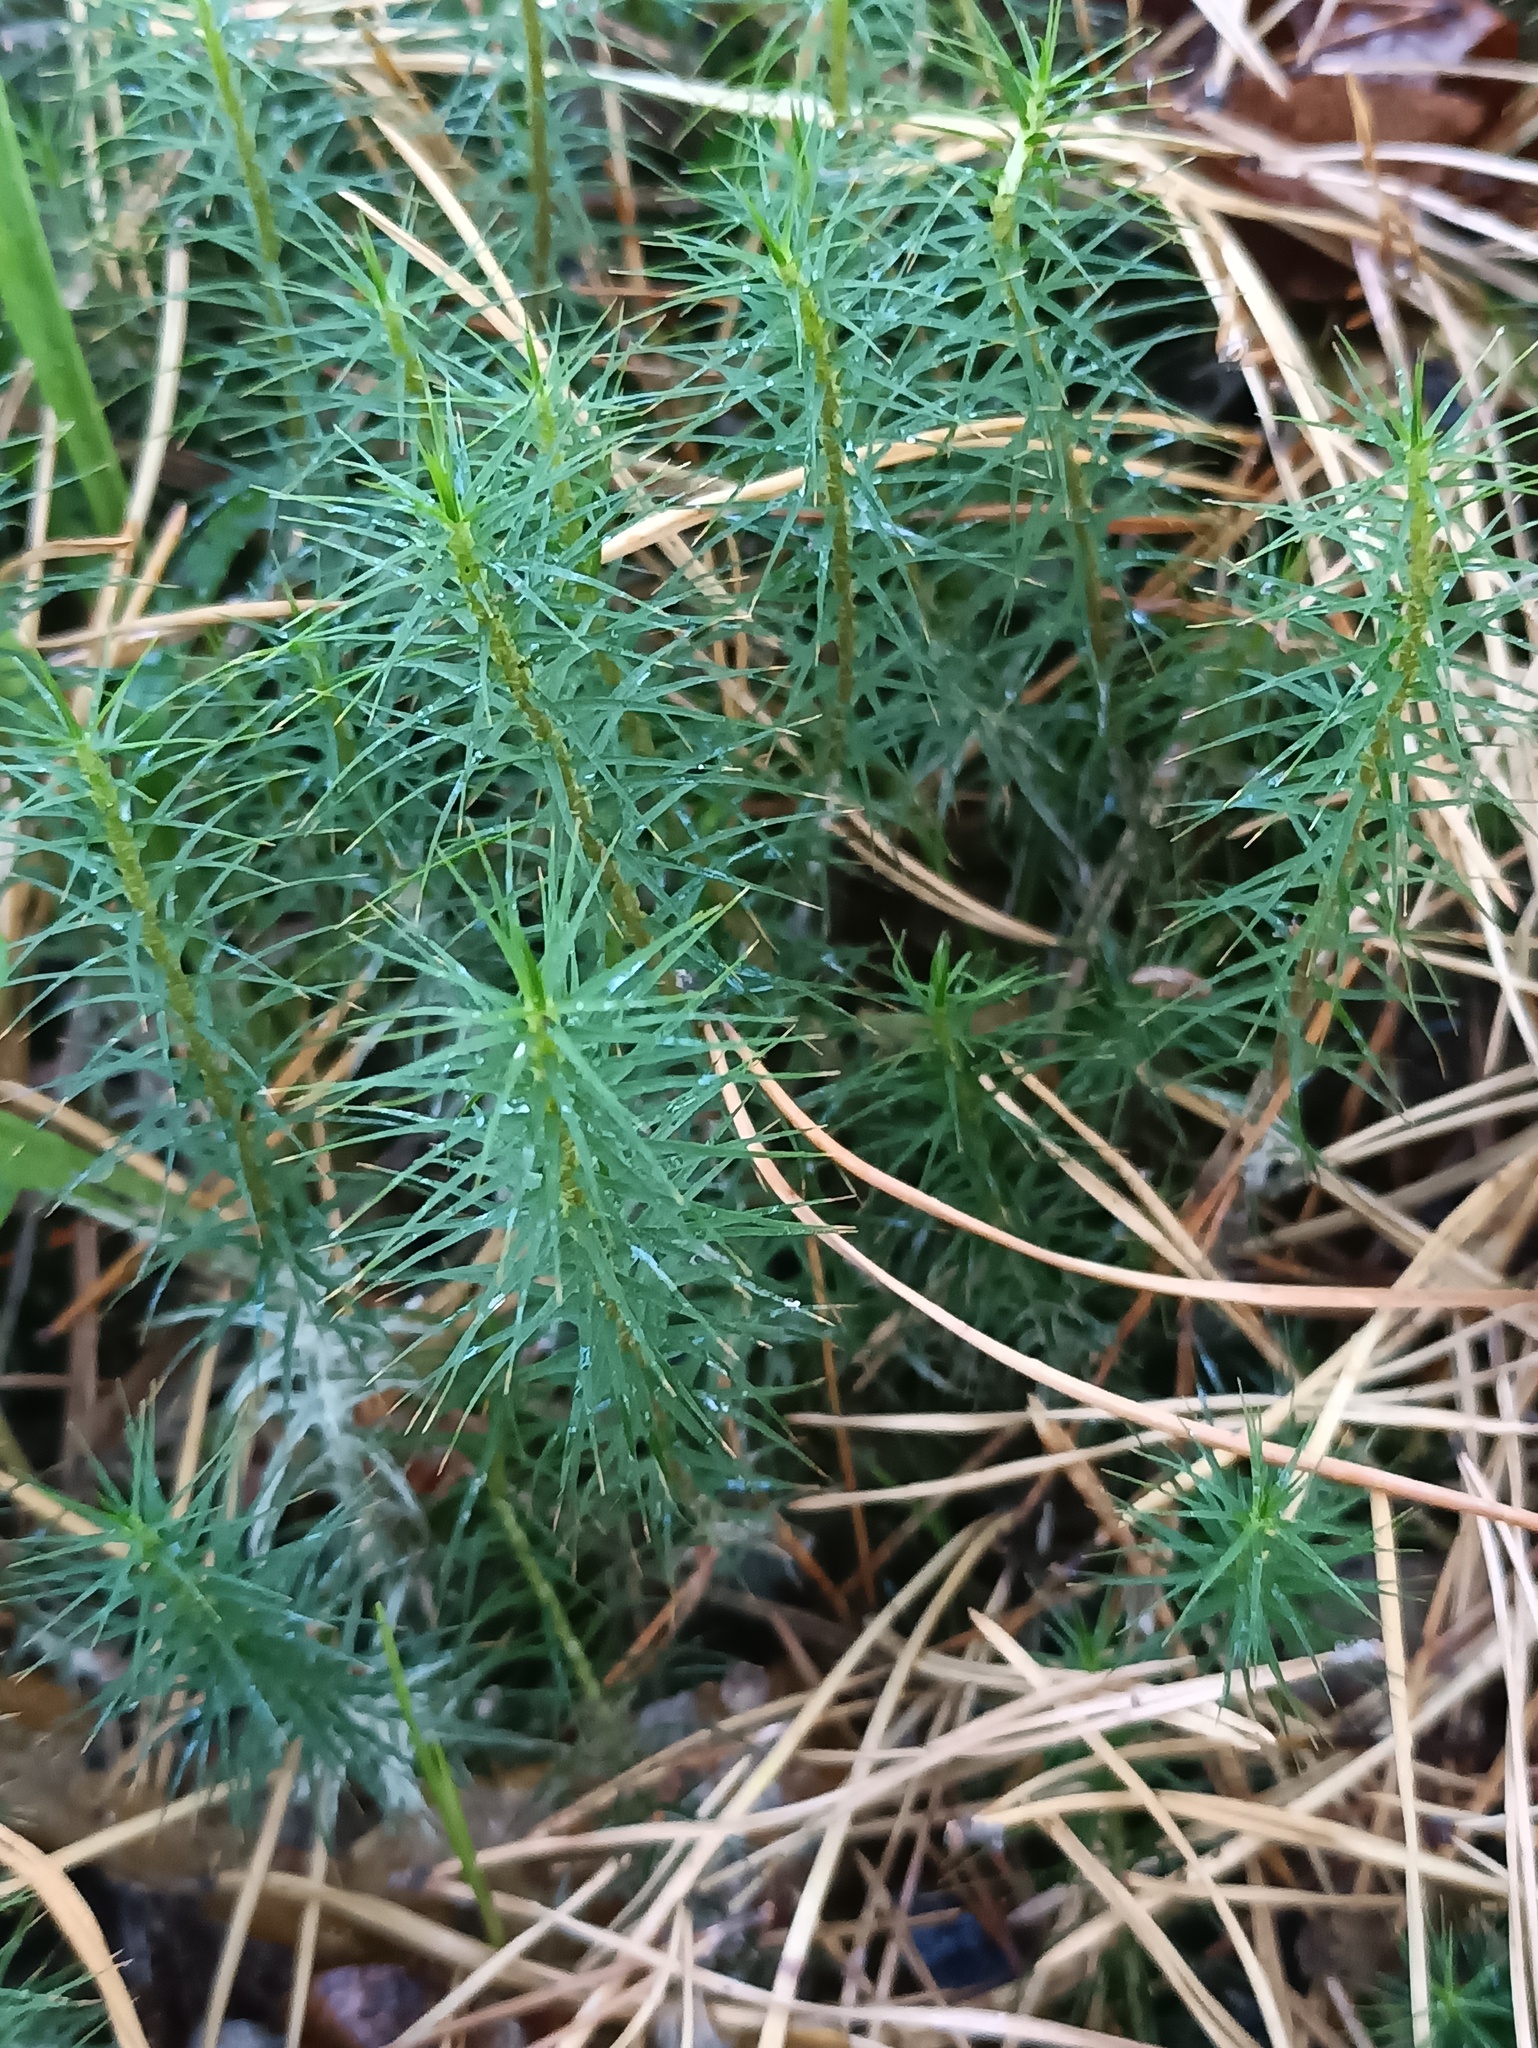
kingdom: Plantae
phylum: Bryophyta
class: Polytrichopsida
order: Polytrichales
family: Polytrichaceae
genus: Polytrichum
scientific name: Polytrichum commune
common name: Common haircap
